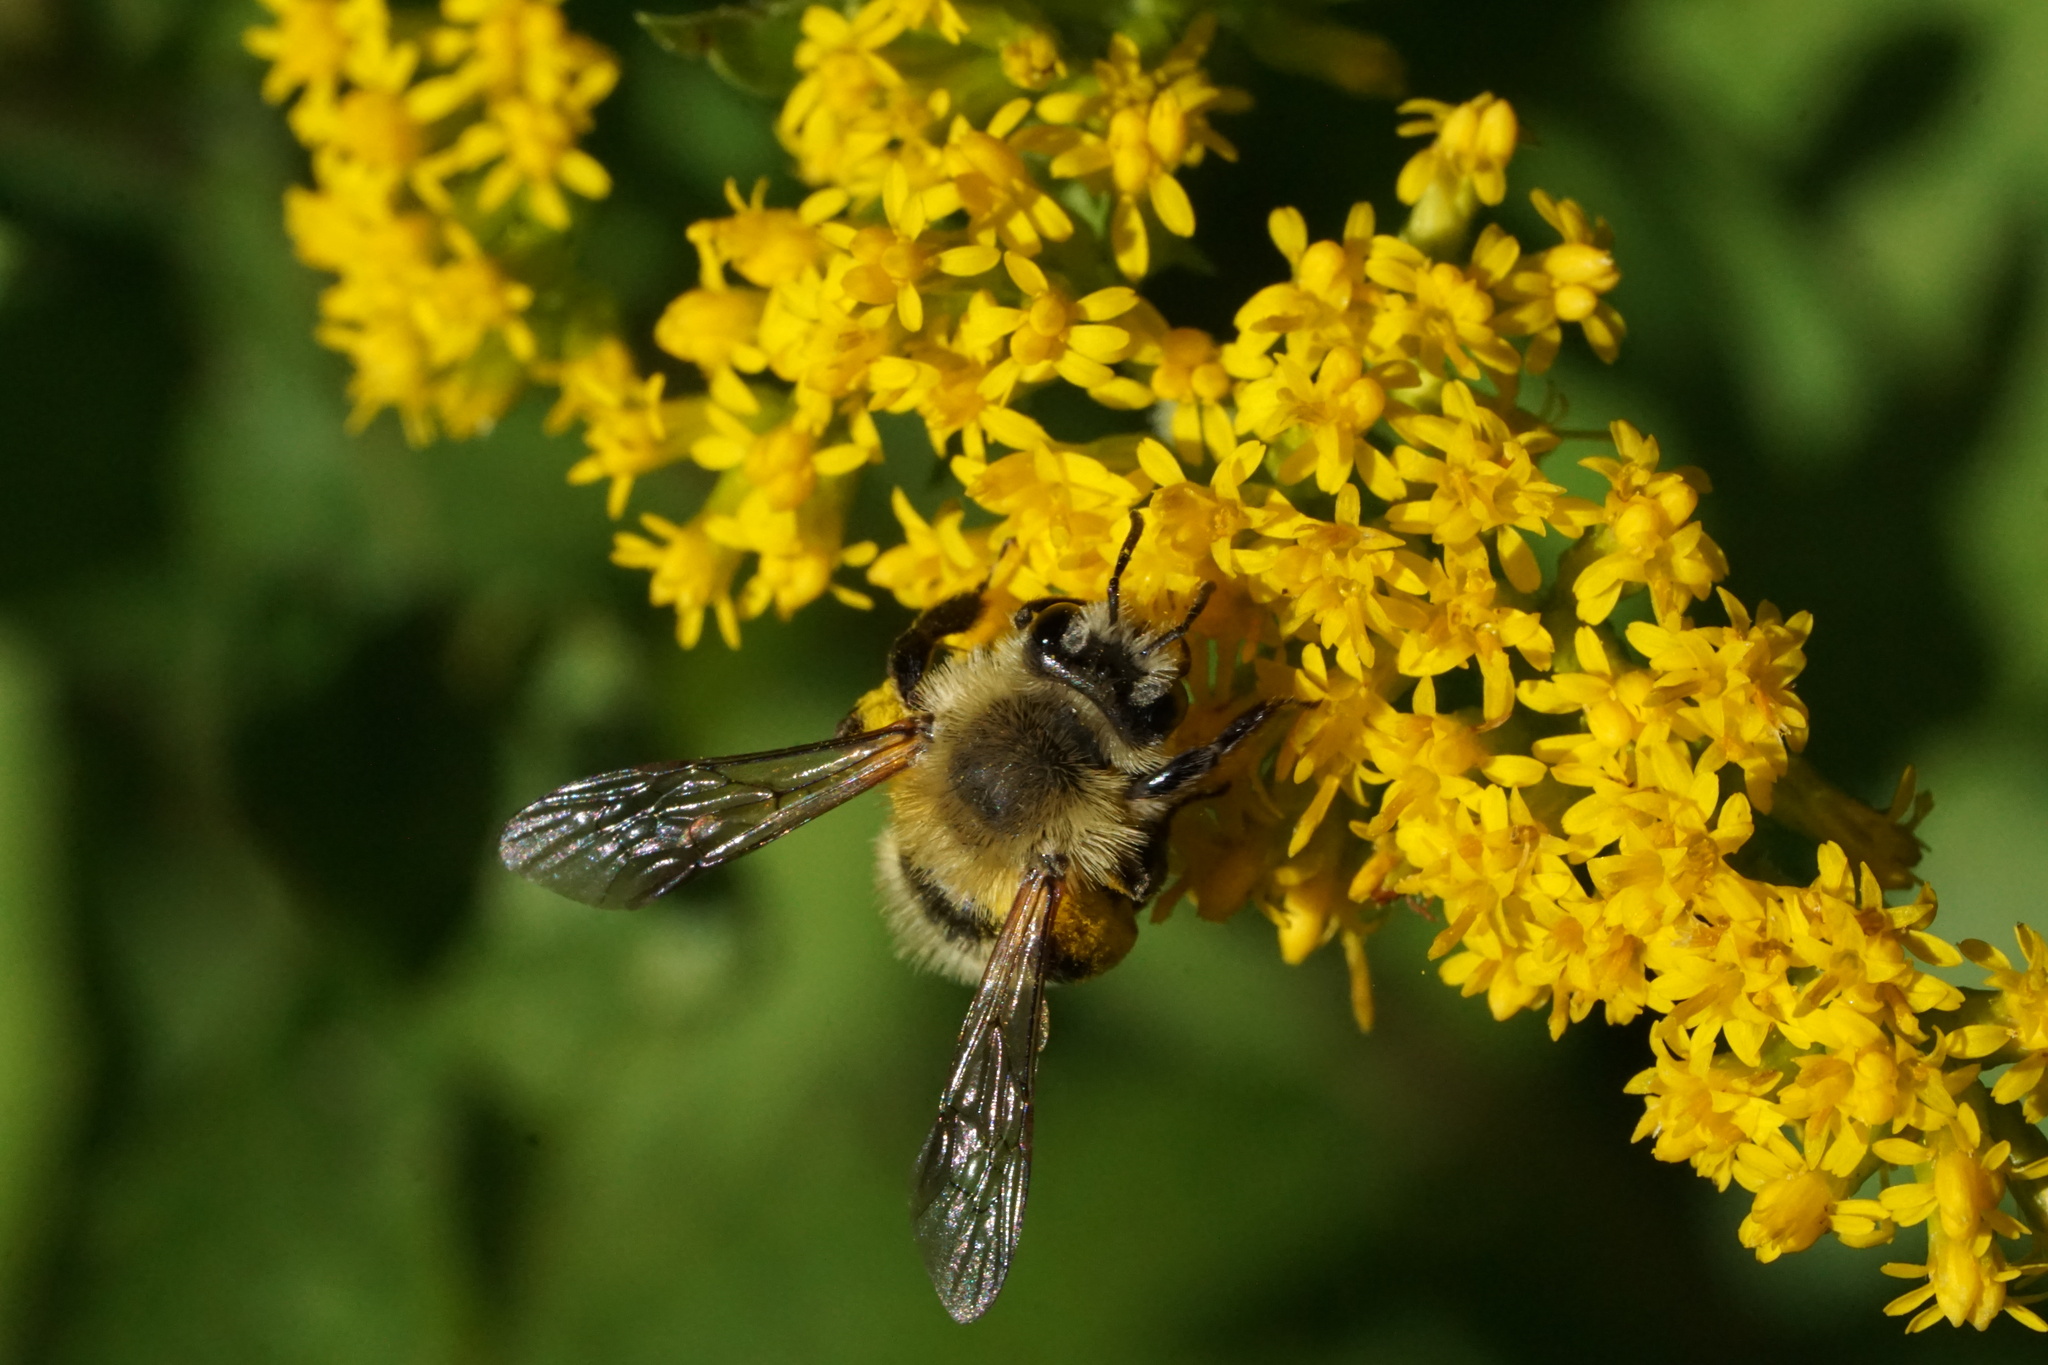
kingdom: Animalia
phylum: Arthropoda
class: Insecta
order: Hymenoptera
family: Andrenidae
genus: Andrena
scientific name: Andrena hirticincta
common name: Hairy-banded mining bee
